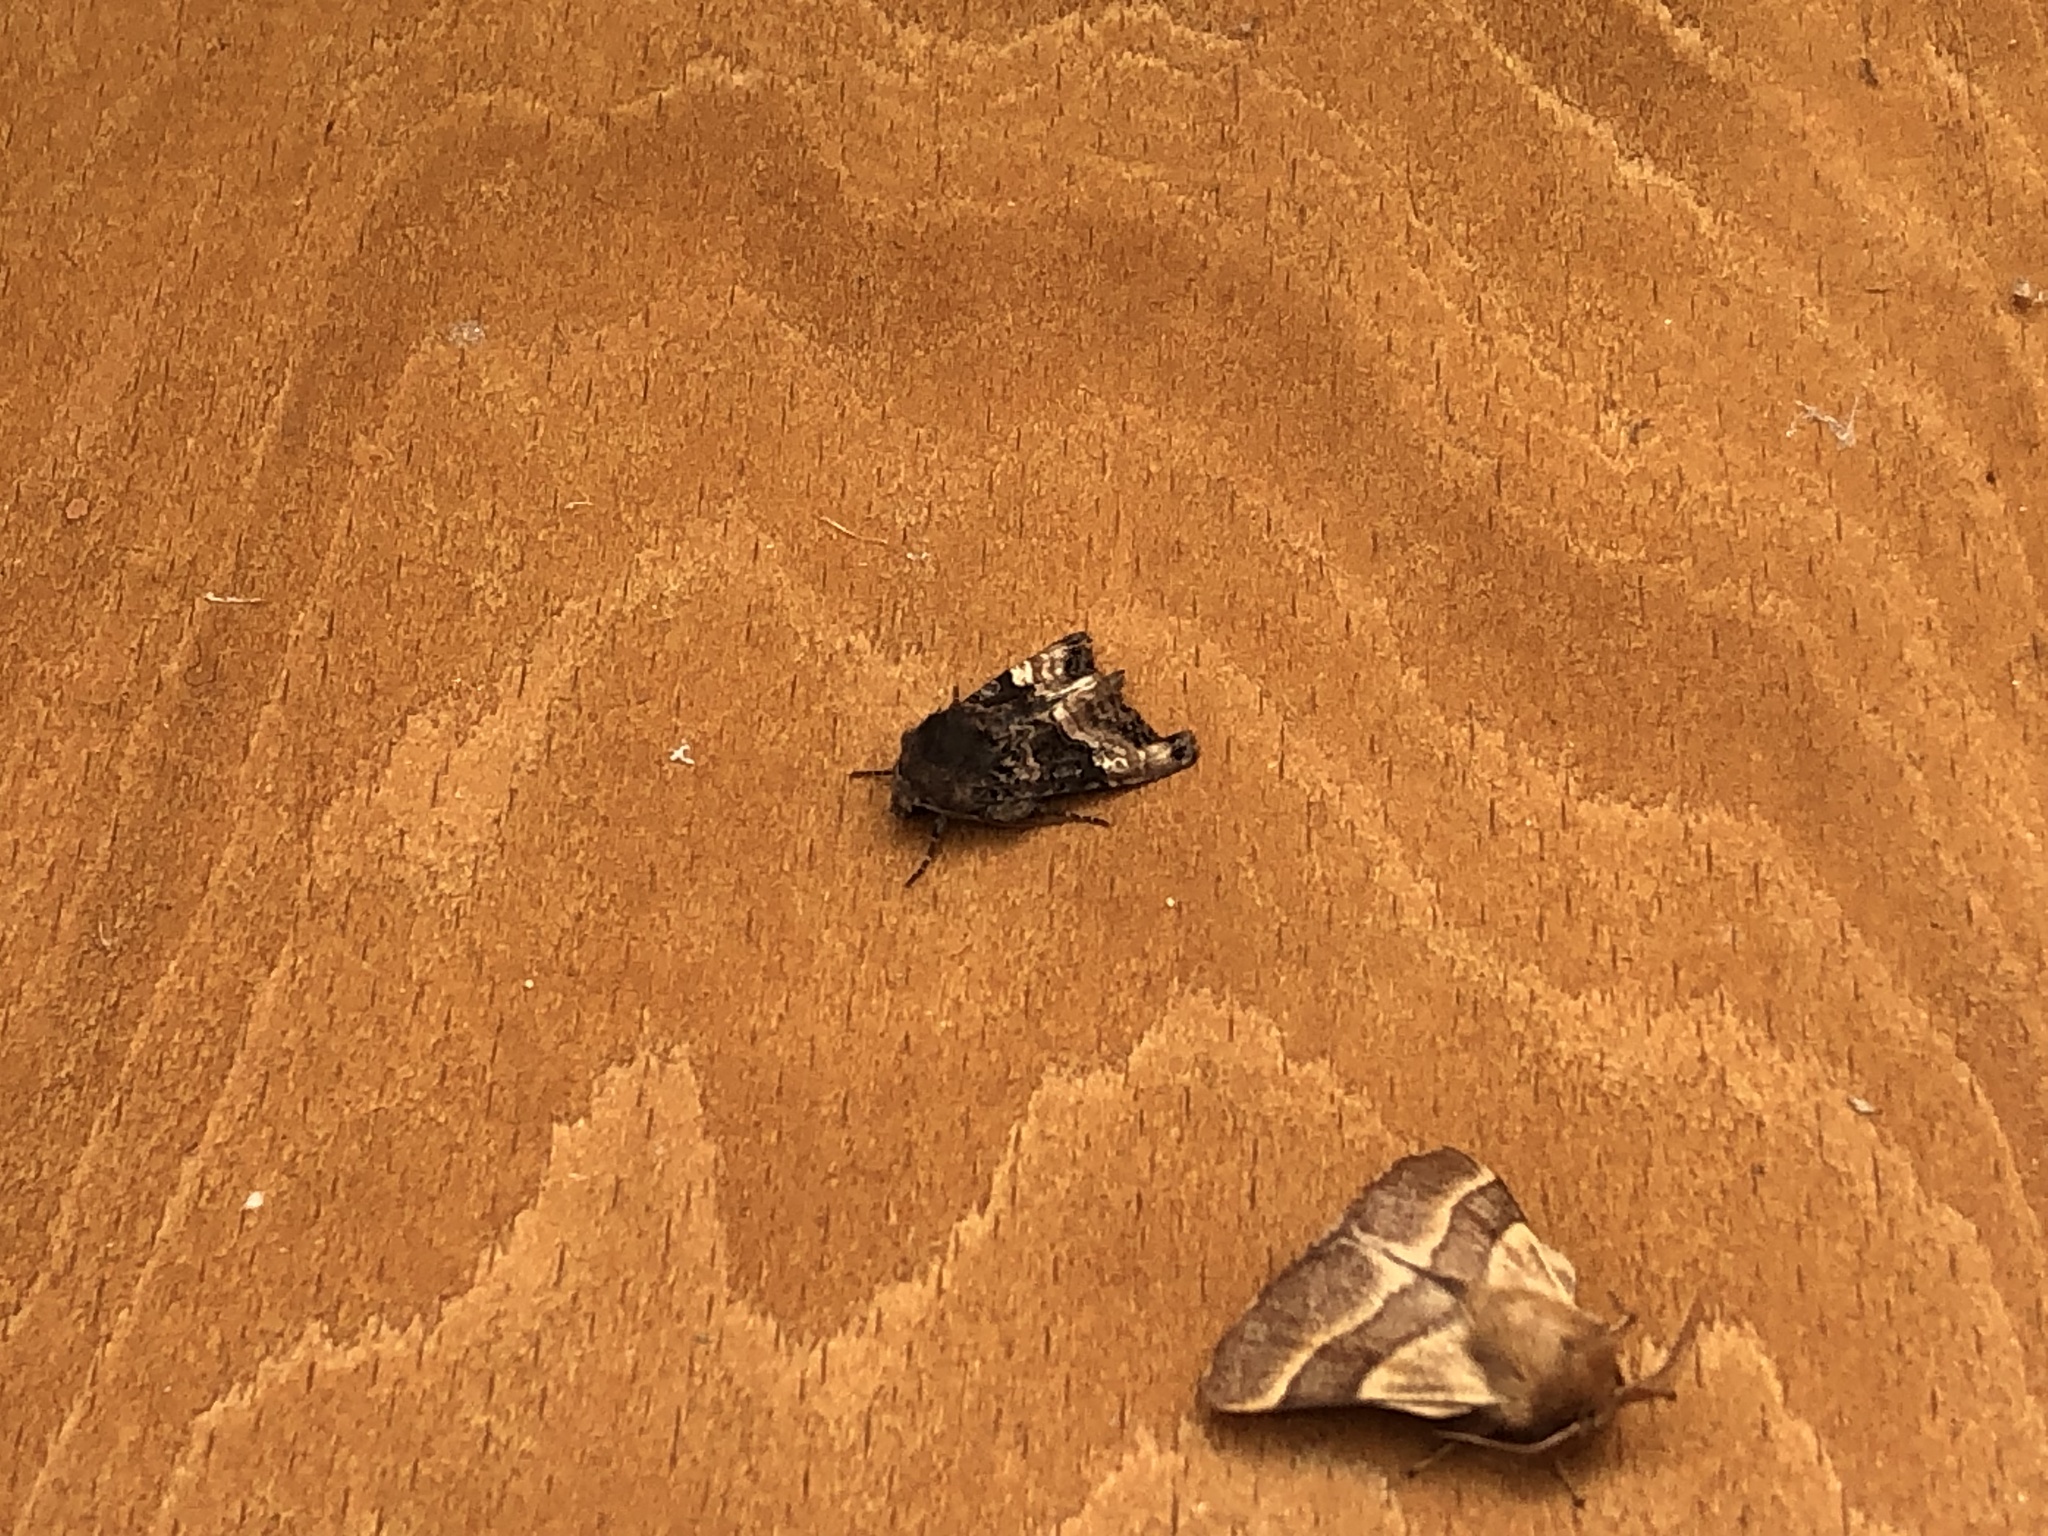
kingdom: Animalia
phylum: Arthropoda
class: Insecta
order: Lepidoptera
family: Noctuidae
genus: Euplexia
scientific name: Euplexia lucipara
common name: Small angle shades
